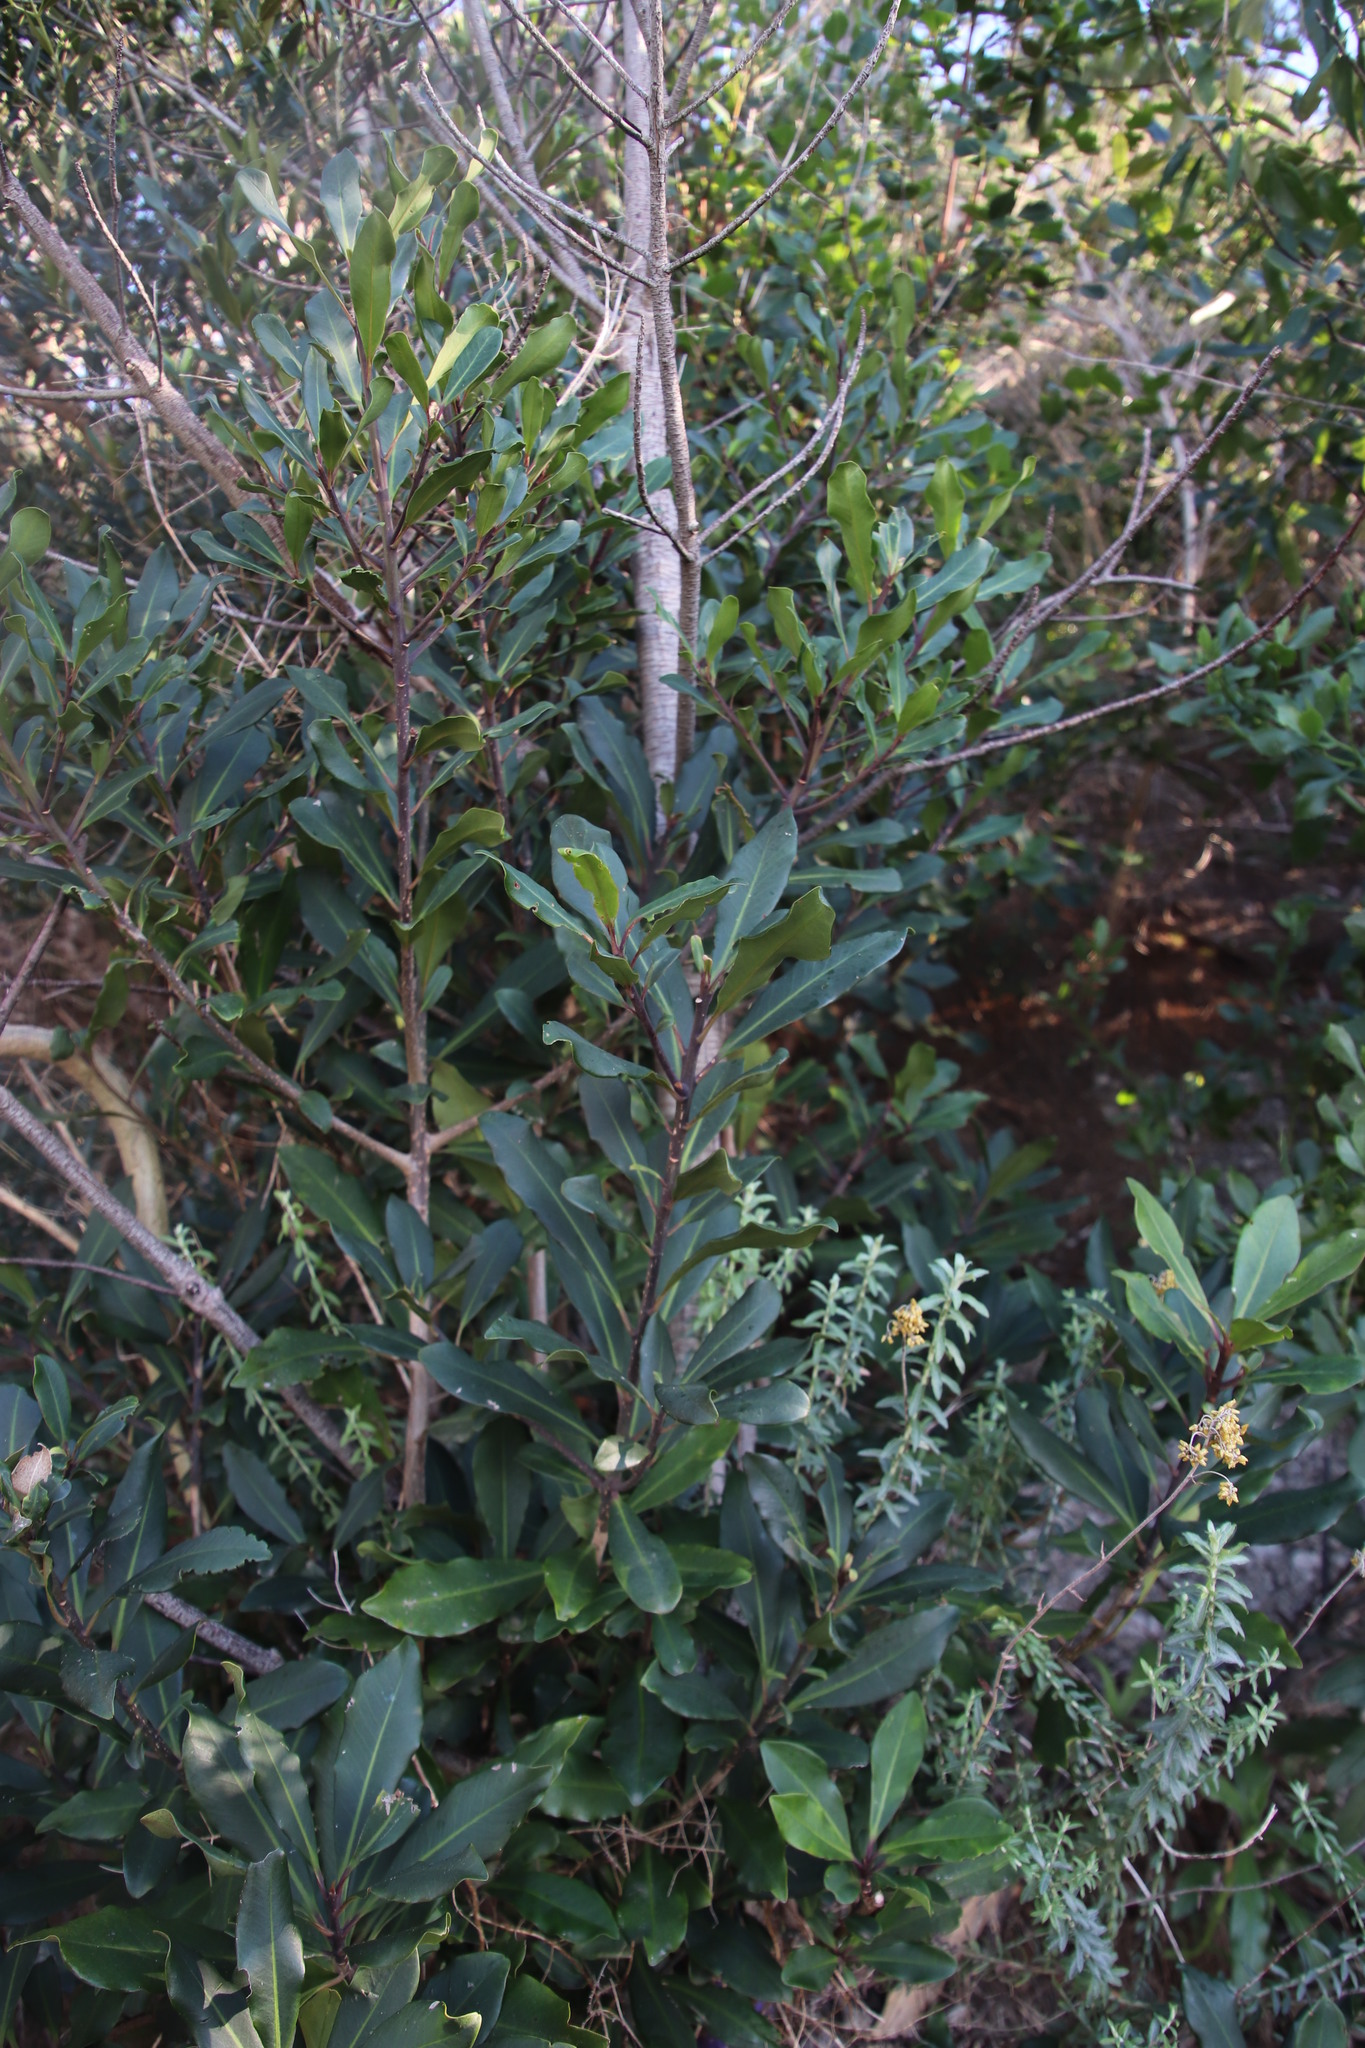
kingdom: Plantae
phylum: Tracheophyta
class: Magnoliopsida
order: Ericales
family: Primulaceae
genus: Myrsine
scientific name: Myrsine melanophloeos
